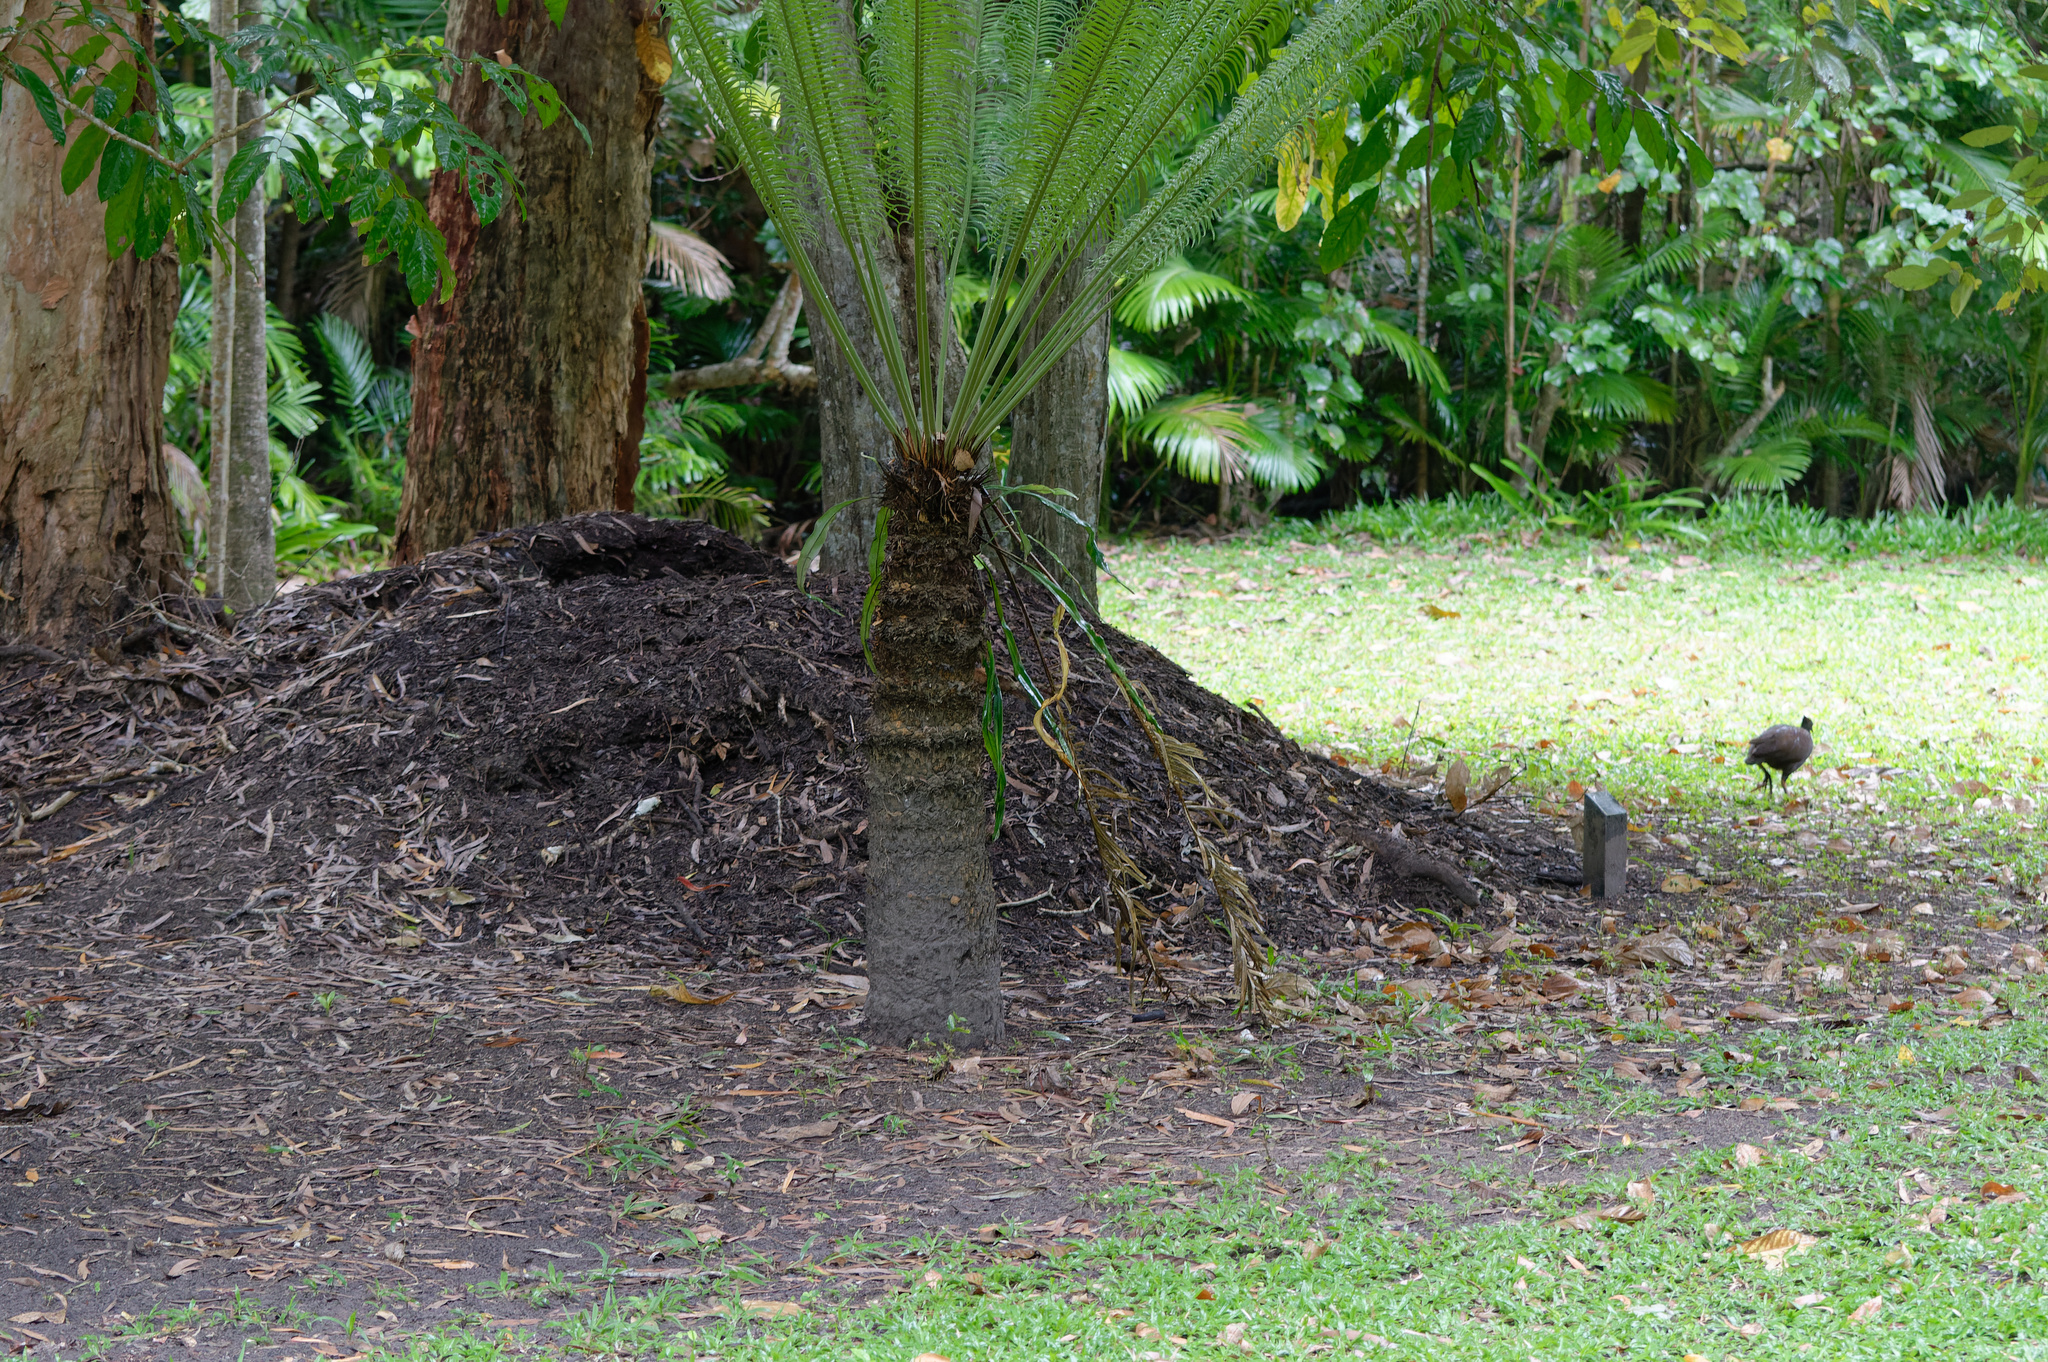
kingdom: Animalia
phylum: Chordata
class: Aves
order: Galliformes
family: Megapodiidae
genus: Megapodius
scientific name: Megapodius reinwardt
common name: Orange-footed scrubfowl
